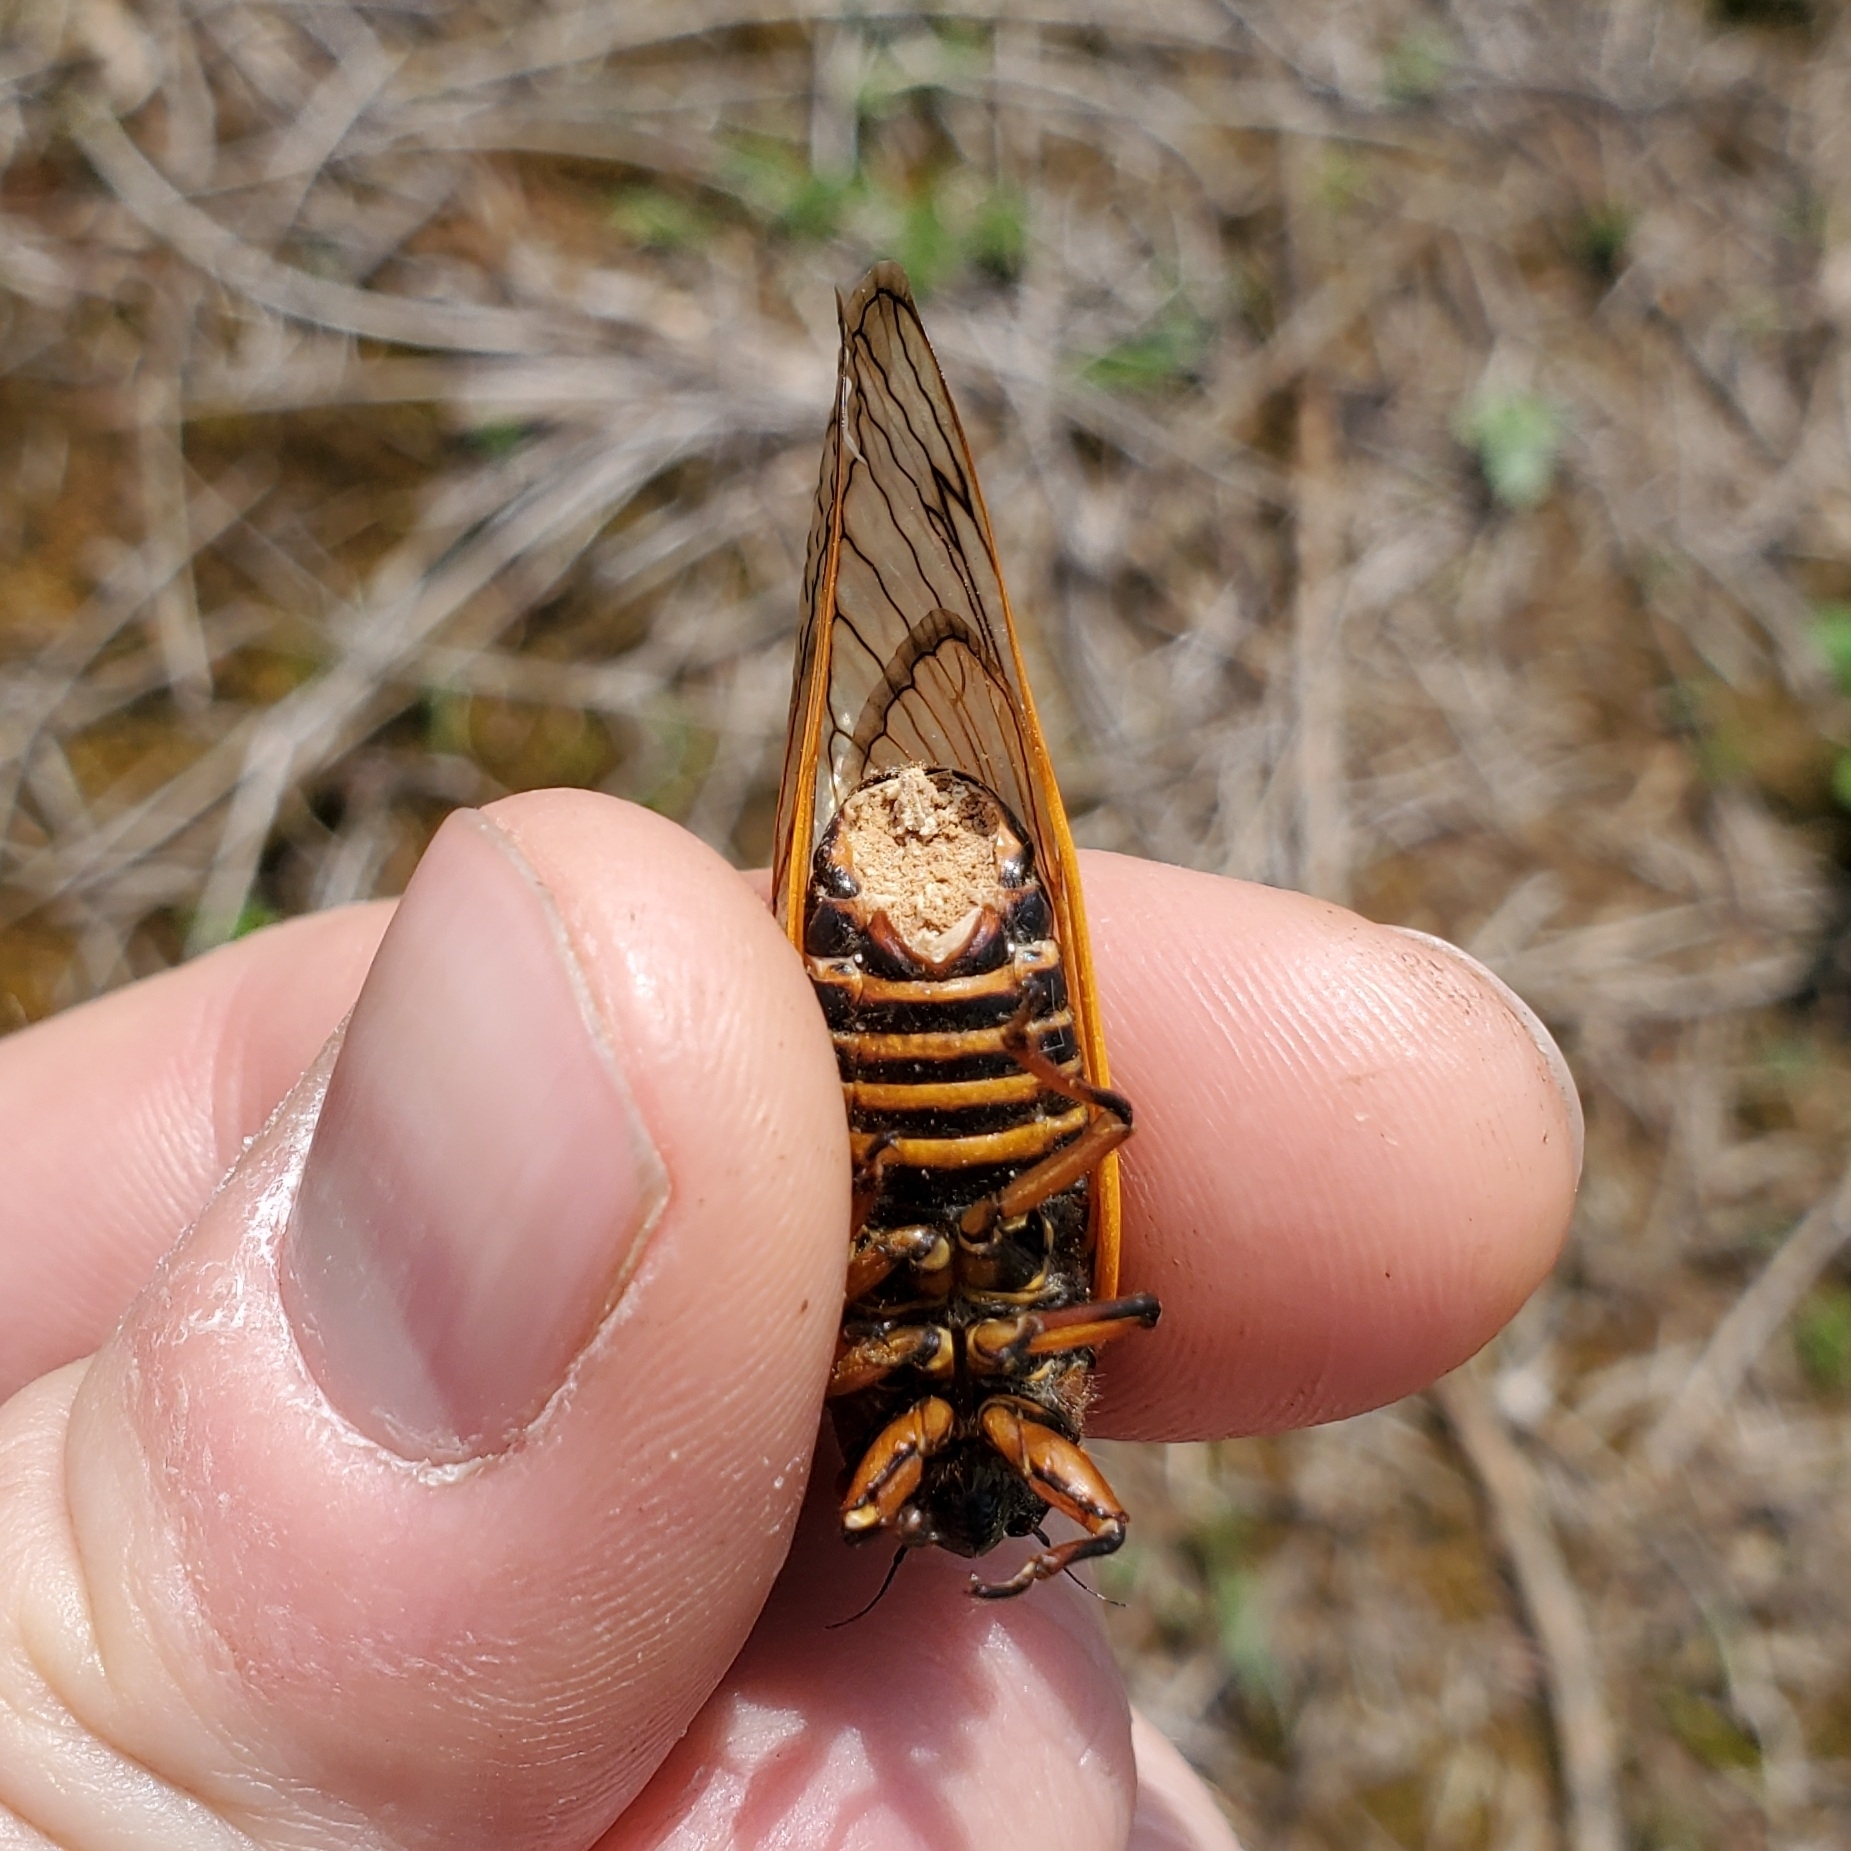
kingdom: Fungi
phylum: Entomophthoromycota
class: Entomophthoromycetes
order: Entomophthorales
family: Entomophthoraceae
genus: Massospora
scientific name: Massospora cicadina
